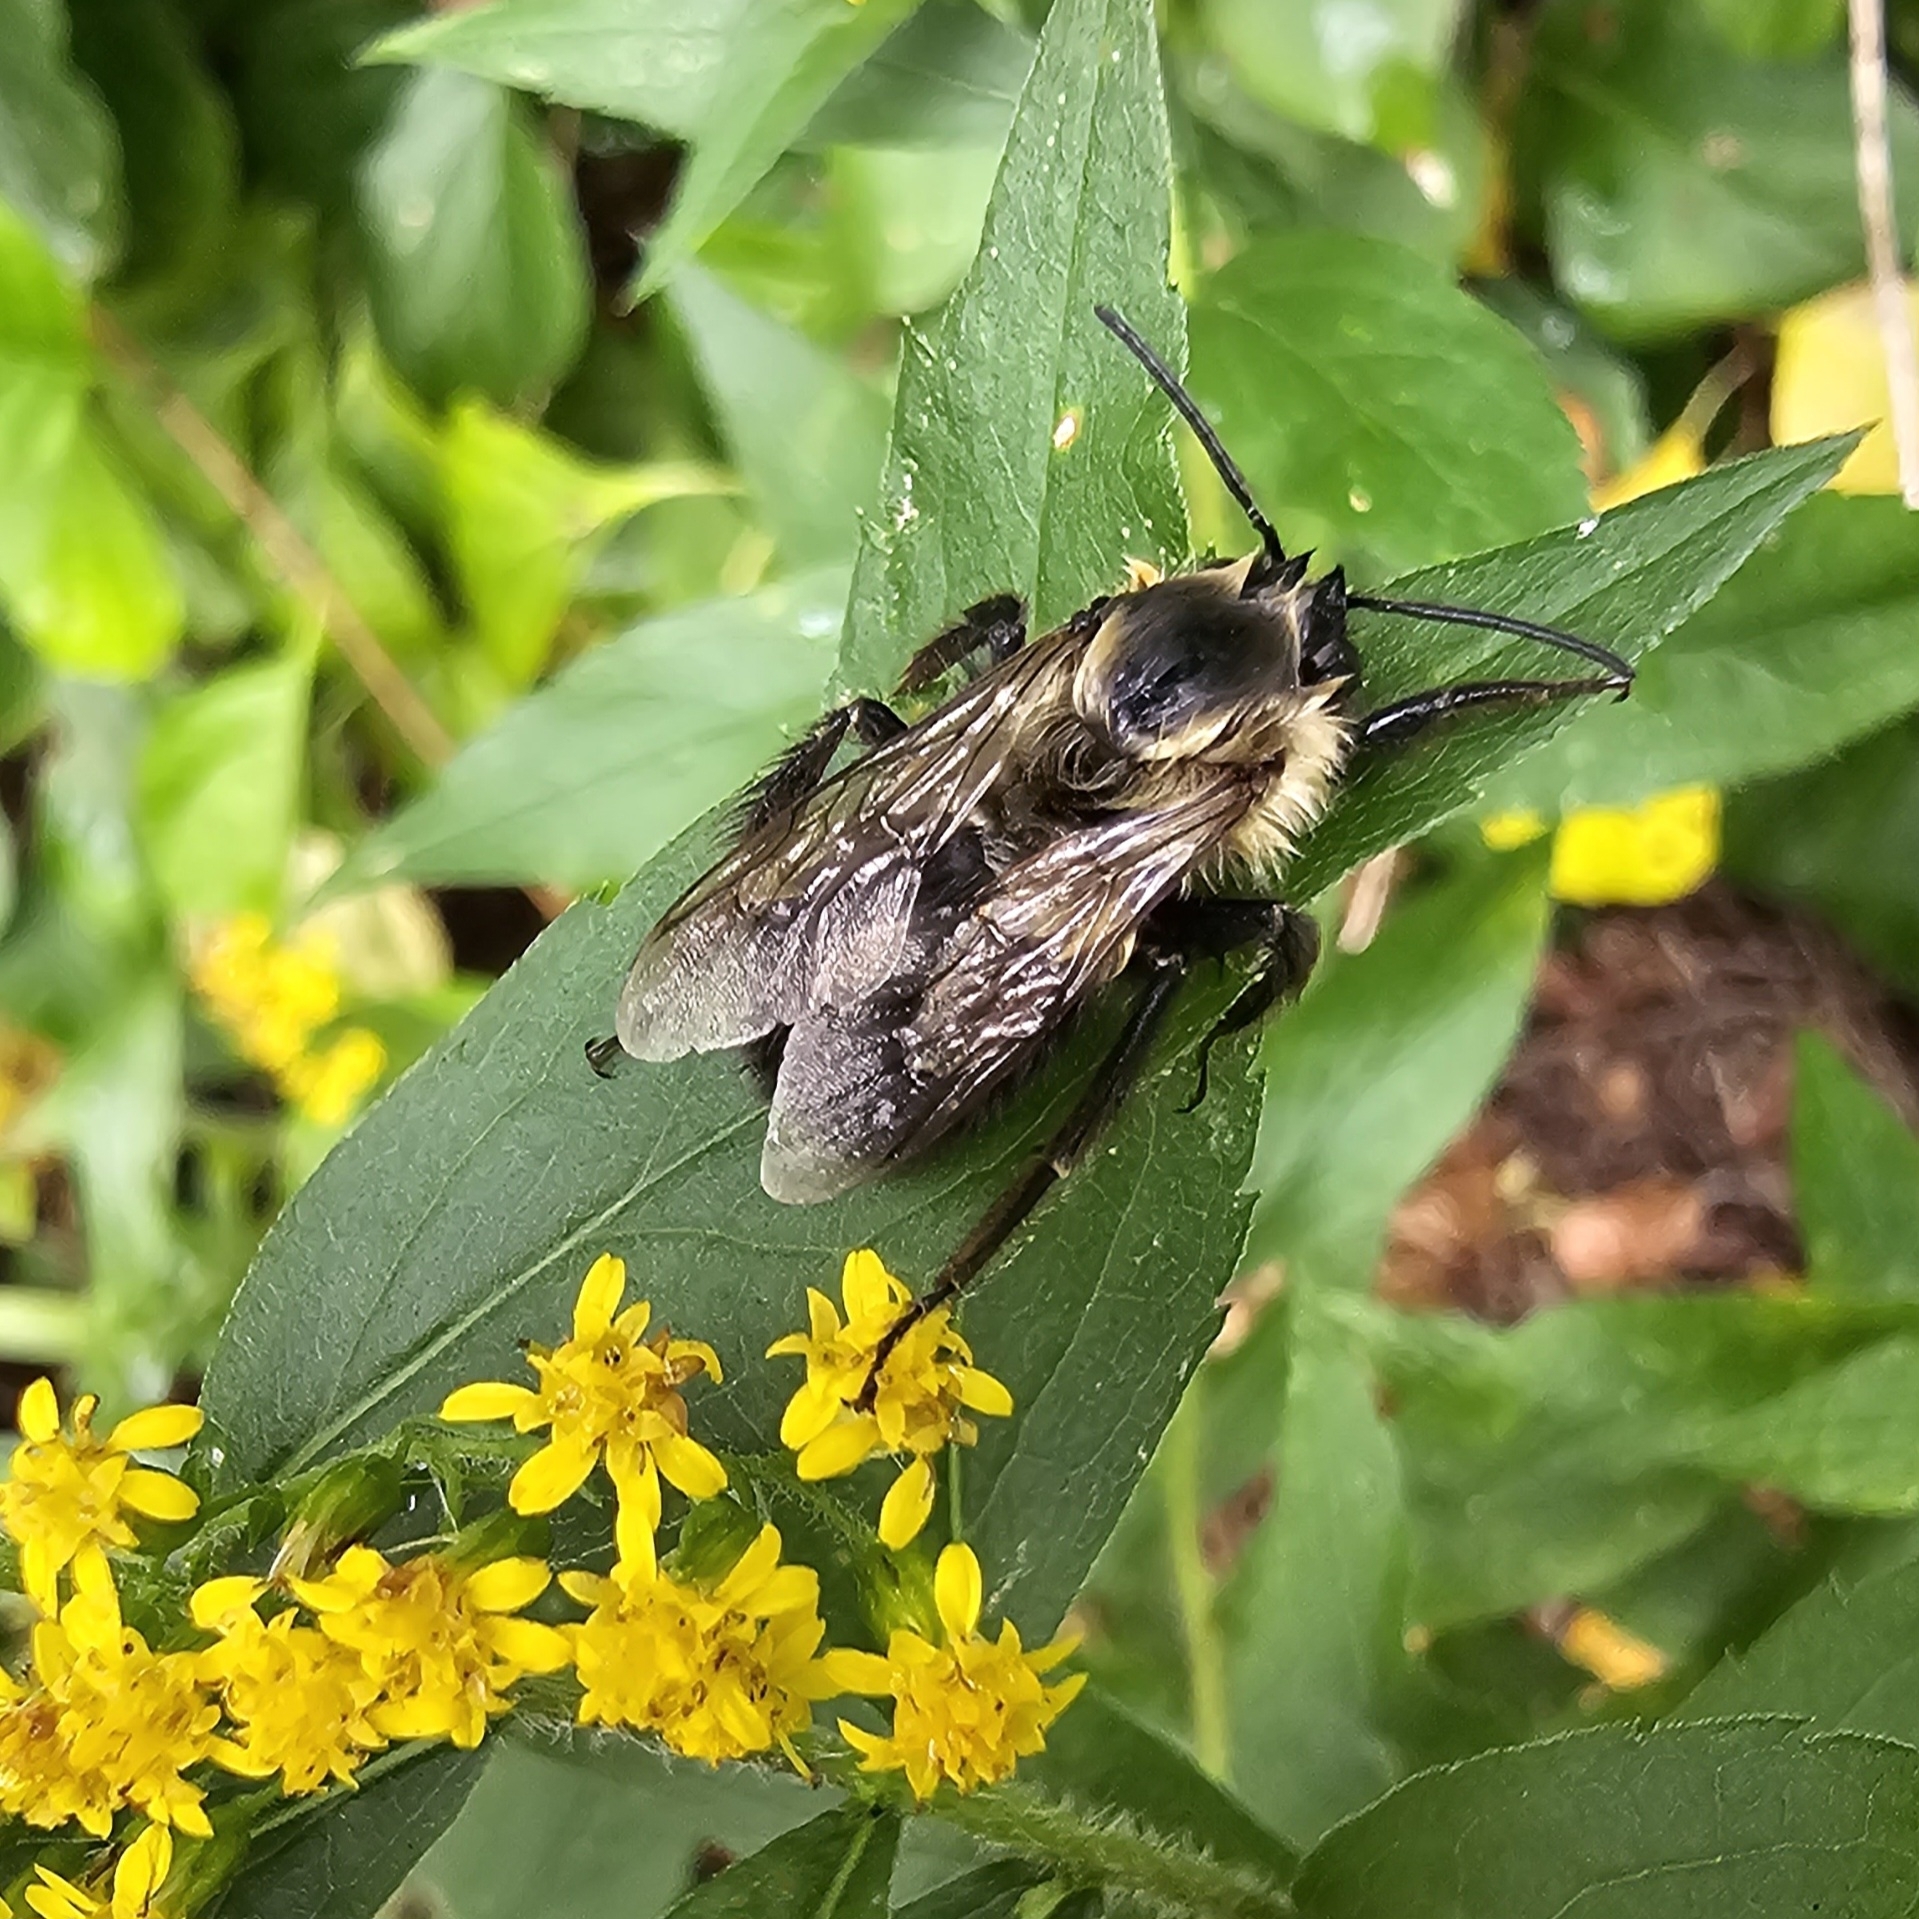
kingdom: Animalia
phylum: Arthropoda
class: Insecta
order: Hymenoptera
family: Apidae
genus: Bombus
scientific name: Bombus impatiens
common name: Common eastern bumble bee
